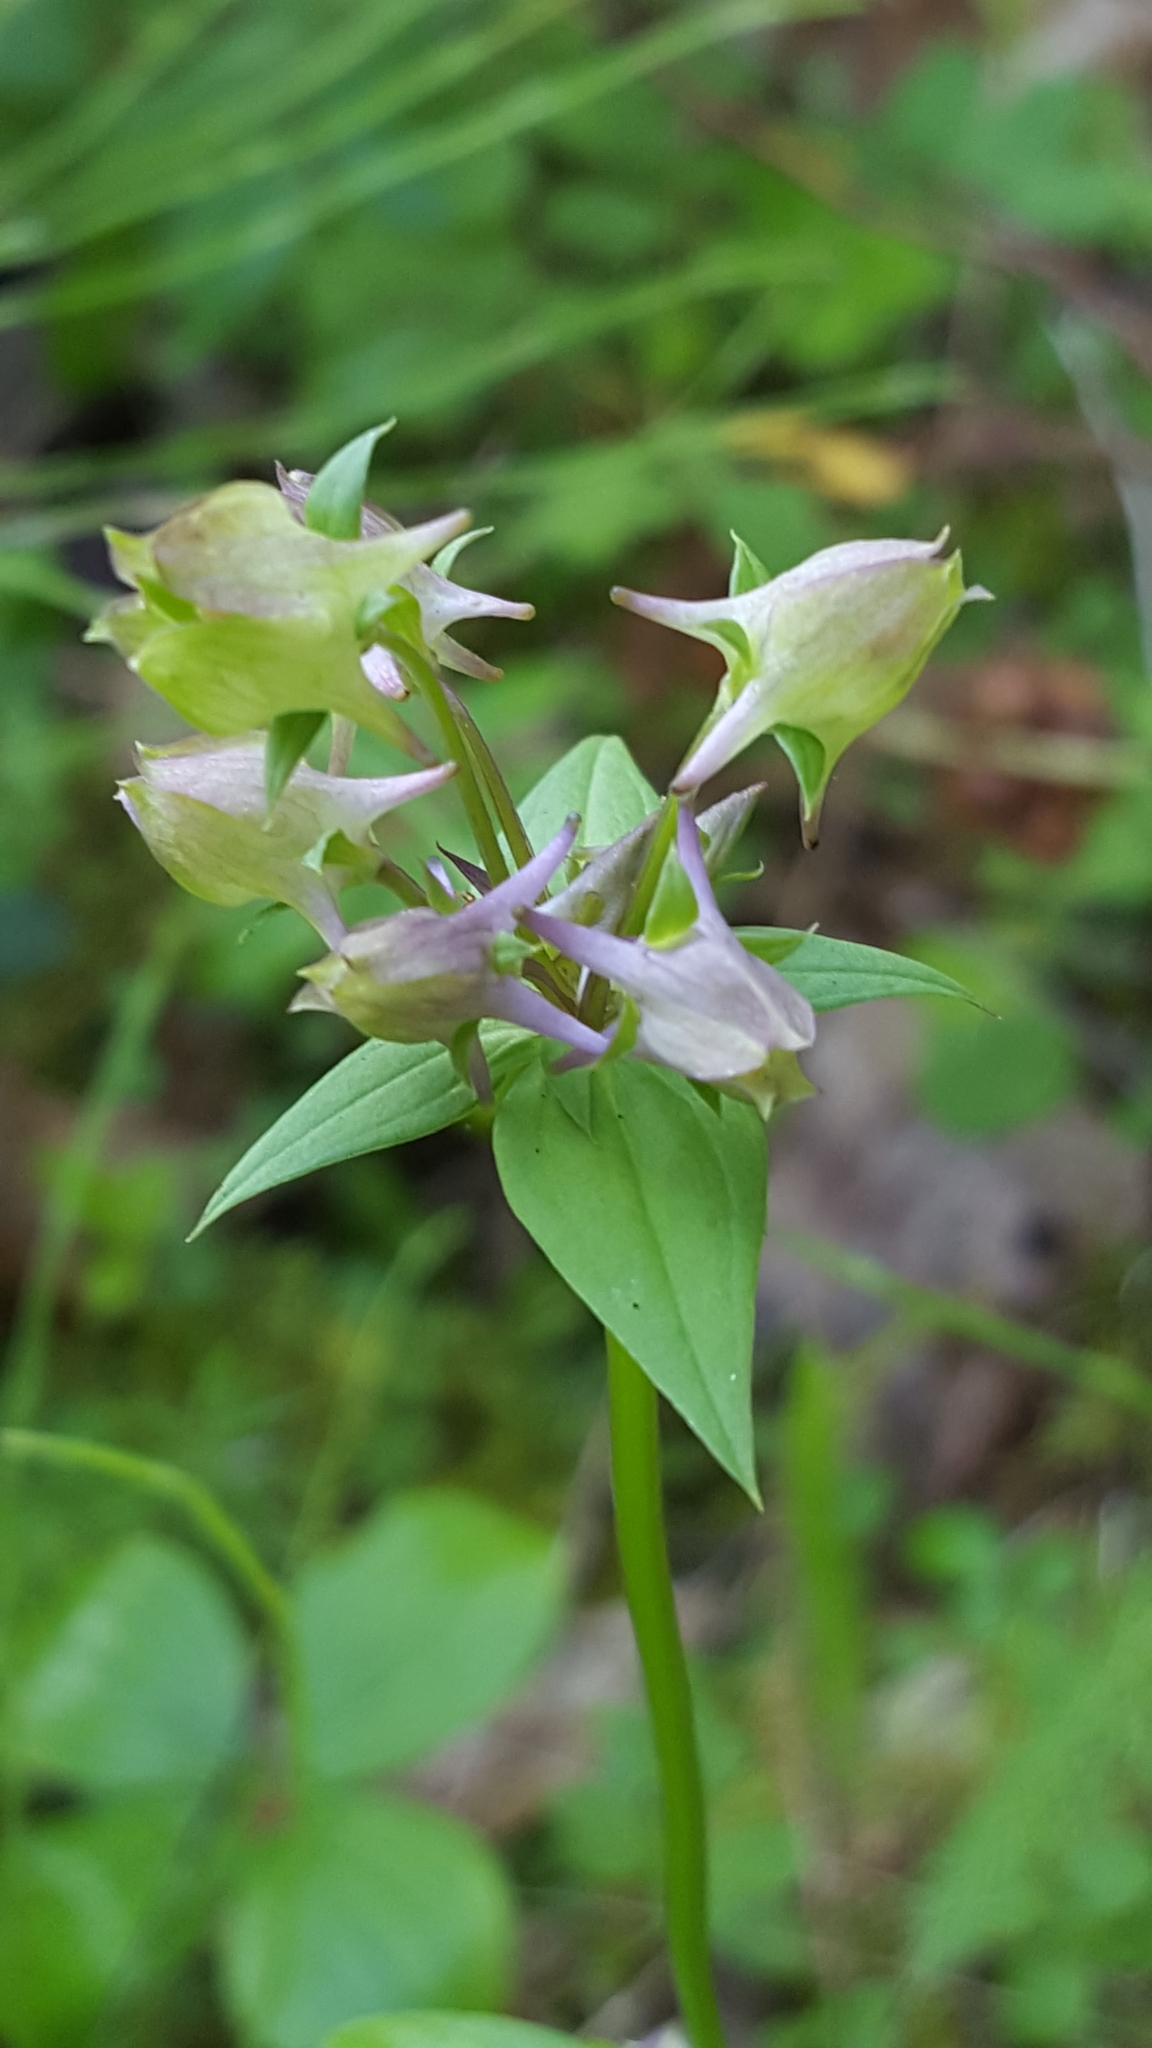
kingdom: Plantae
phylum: Tracheophyta
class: Magnoliopsida
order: Gentianales
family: Gentianaceae
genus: Halenia
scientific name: Halenia deflexa
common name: American spurred gentian
